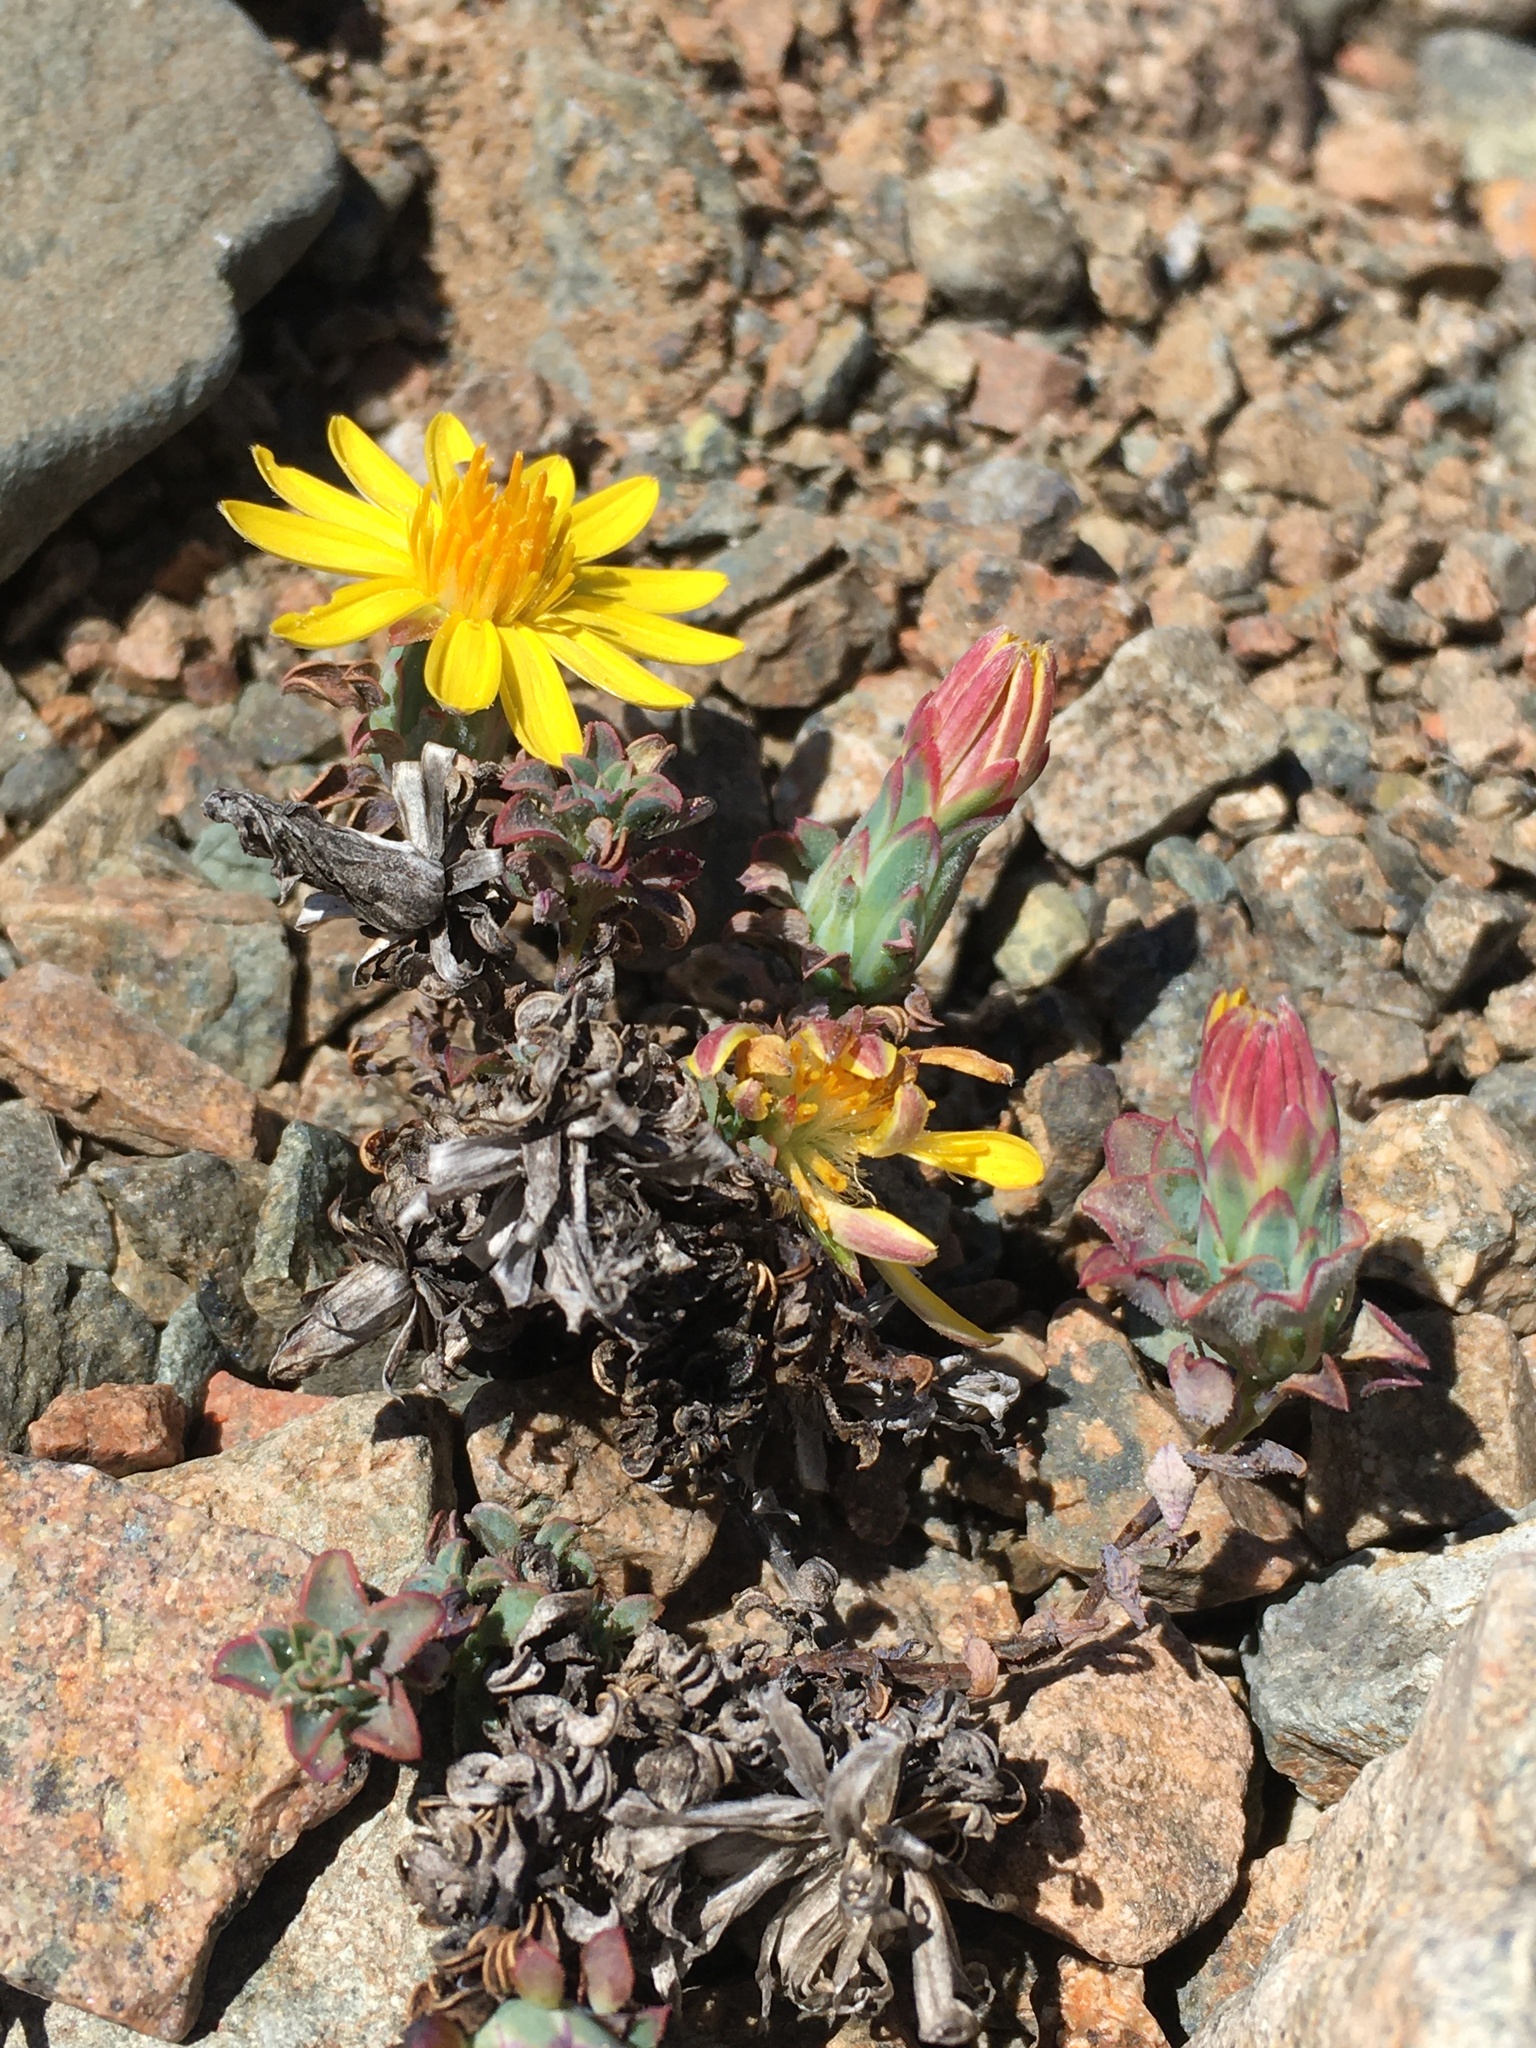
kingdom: Plantae
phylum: Tracheophyta
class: Magnoliopsida
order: Asterales
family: Asteraceae
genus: Chaetanthera
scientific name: Chaetanthera glabrata
